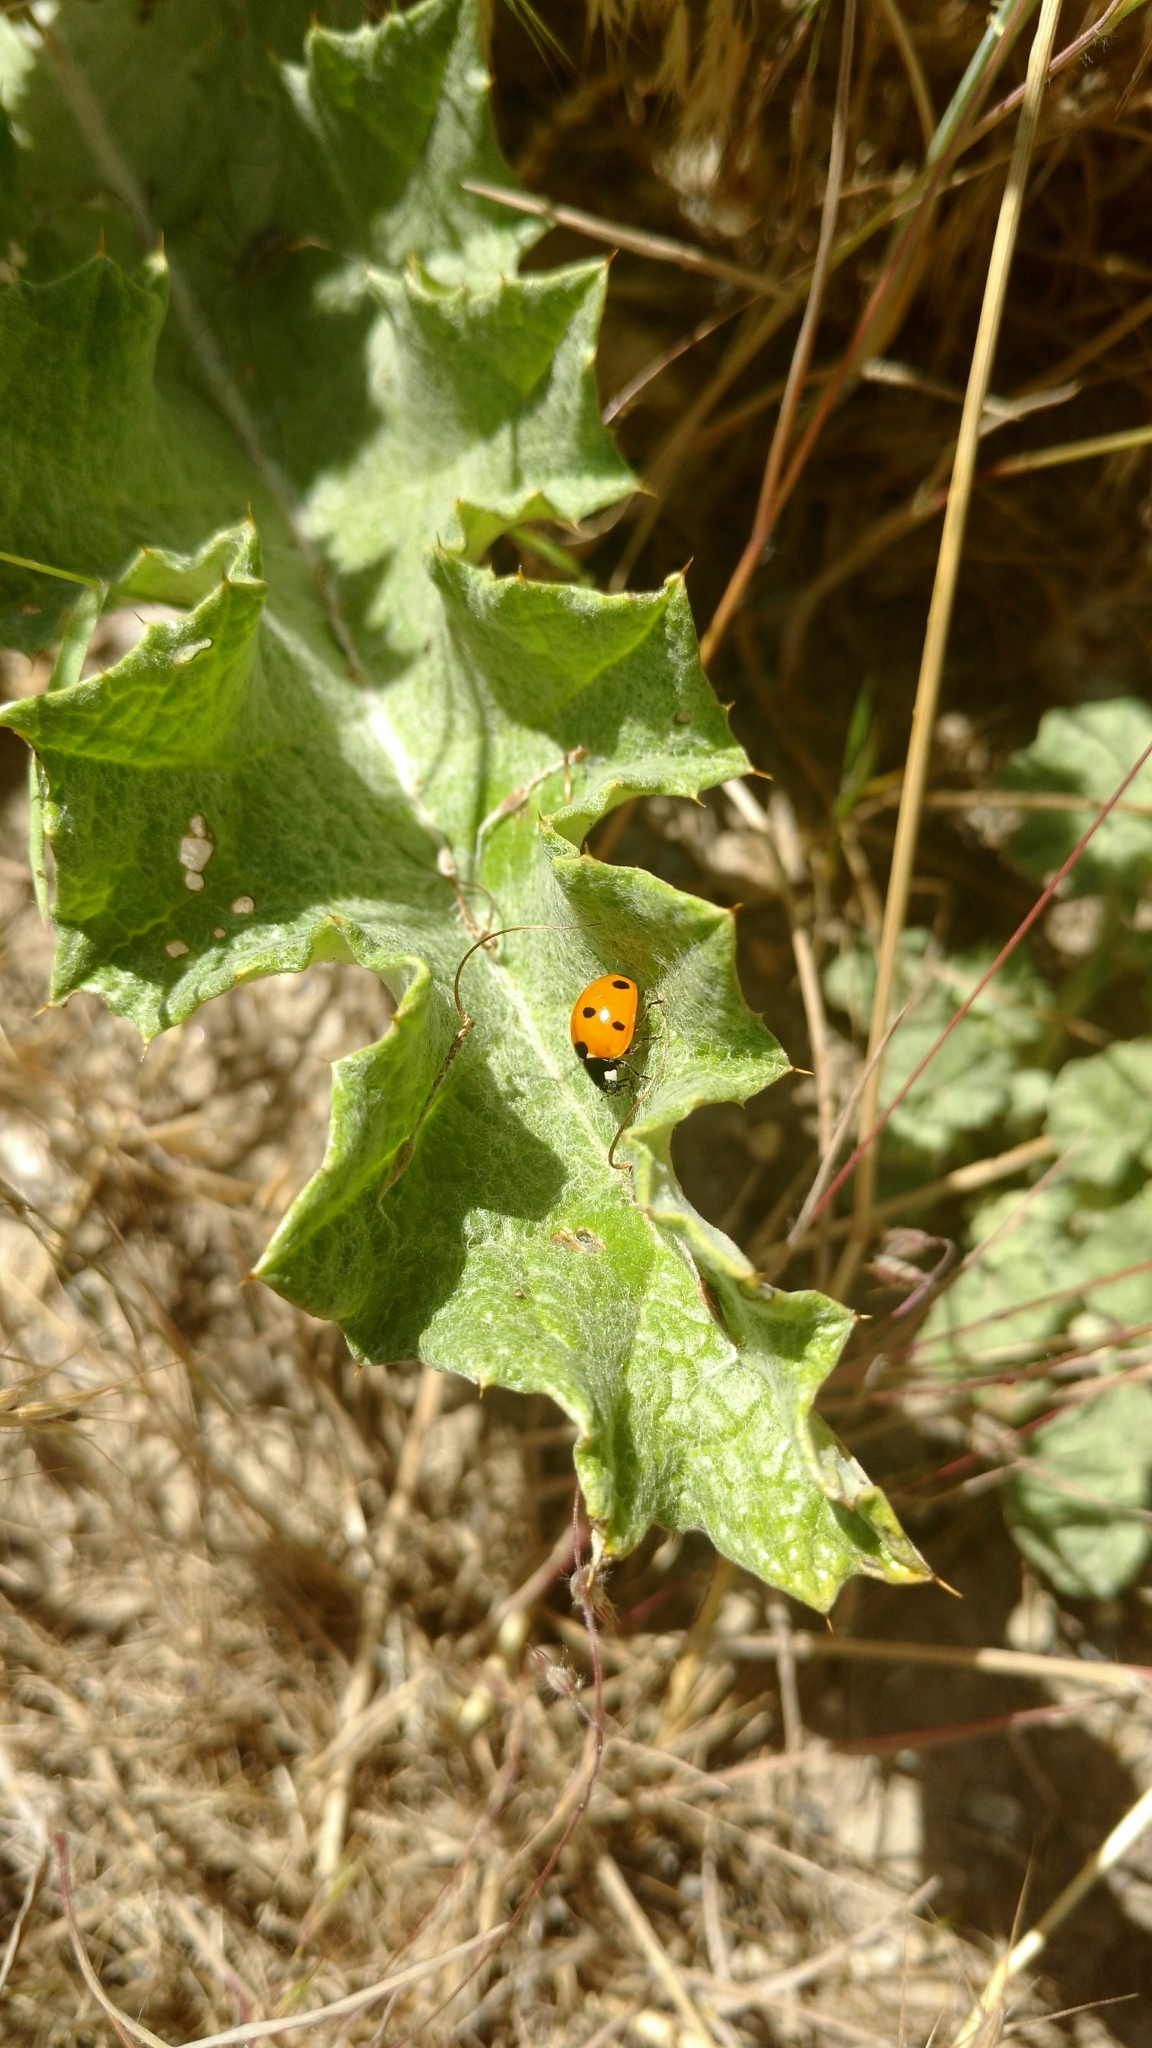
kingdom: Animalia
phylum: Arthropoda
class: Insecta
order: Coleoptera
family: Coccinellidae
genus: Coccinella
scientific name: Coccinella septempunctata
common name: Sevenspotted lady beetle
